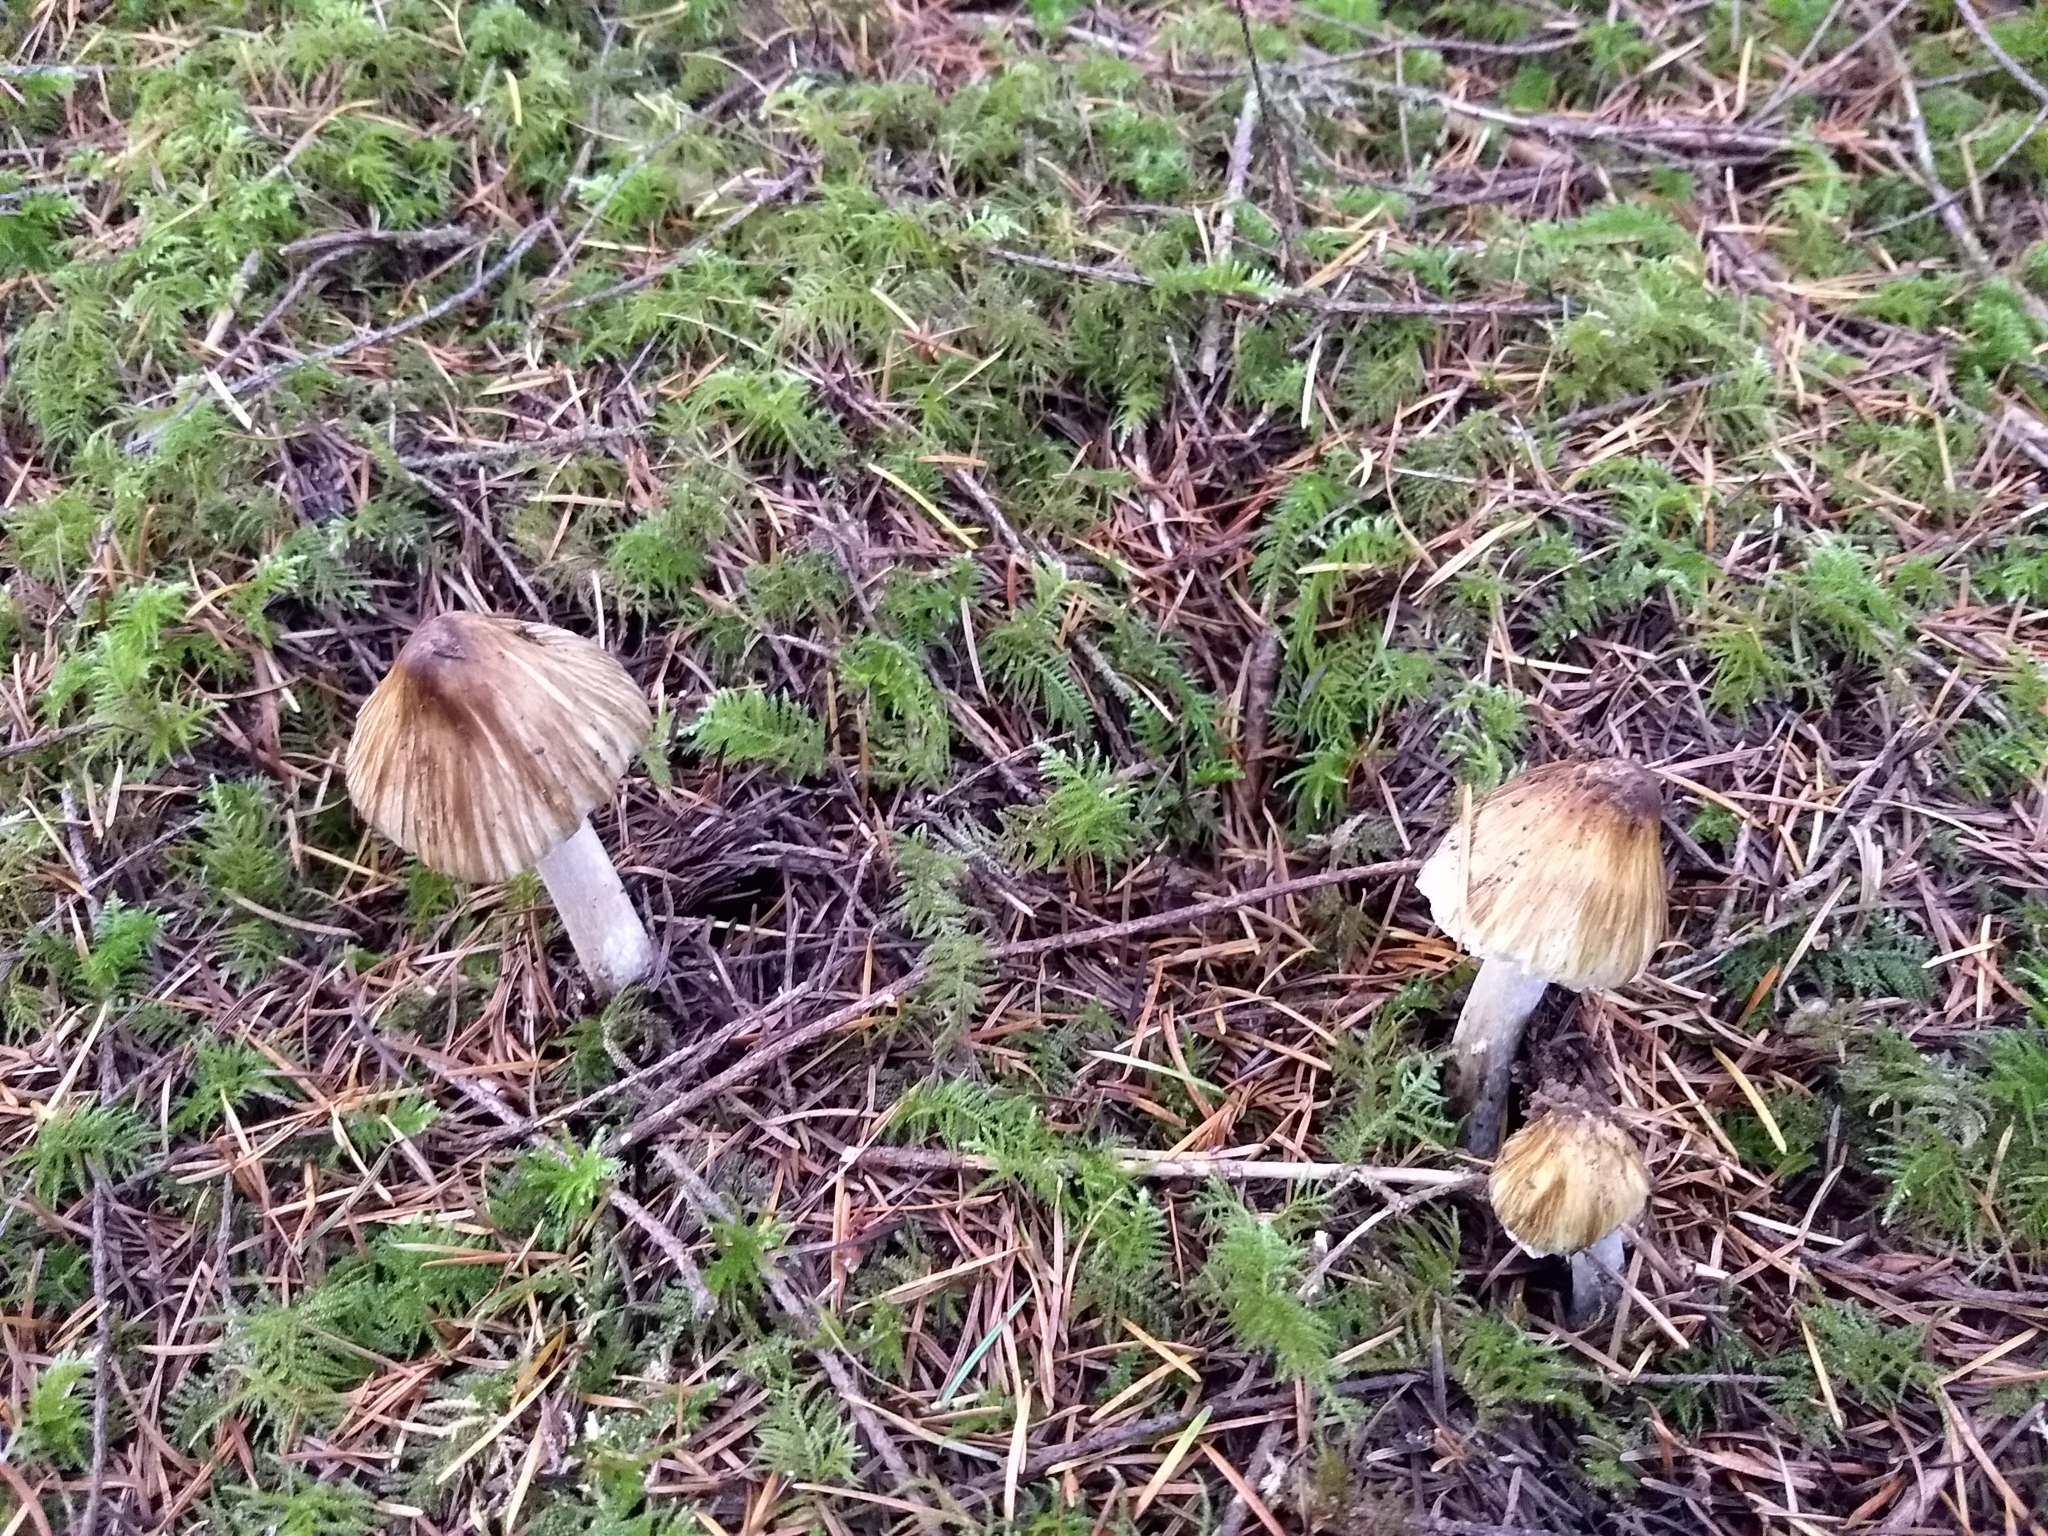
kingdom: Fungi
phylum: Basidiomycota
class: Agaricomycetes
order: Agaricales
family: Inocybaceae
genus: Pseudosperma
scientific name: Pseudosperma sororium
